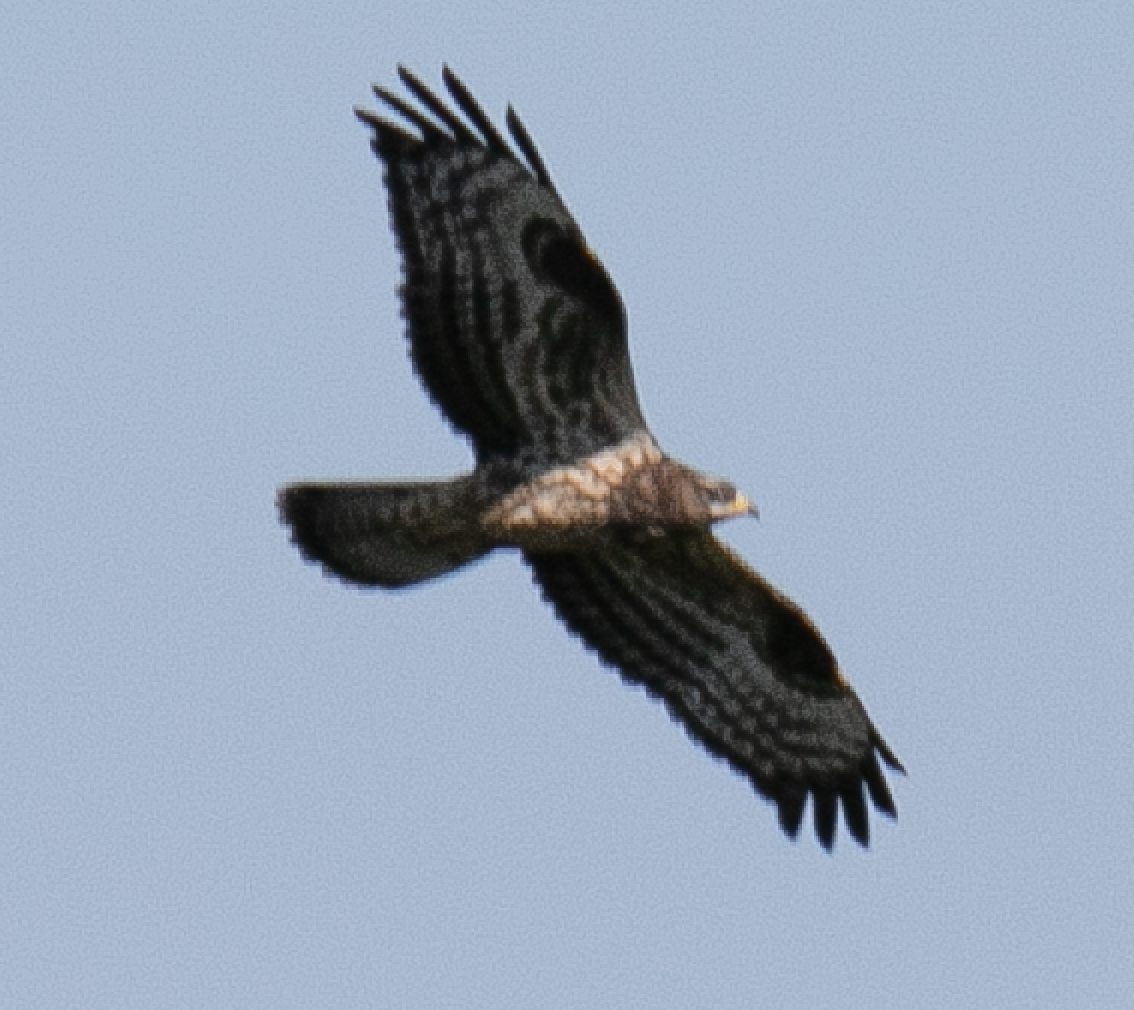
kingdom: Animalia
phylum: Chordata
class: Aves
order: Accipitriformes
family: Accipitridae
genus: Pernis
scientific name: Pernis apivorus
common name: European honey buzzard
